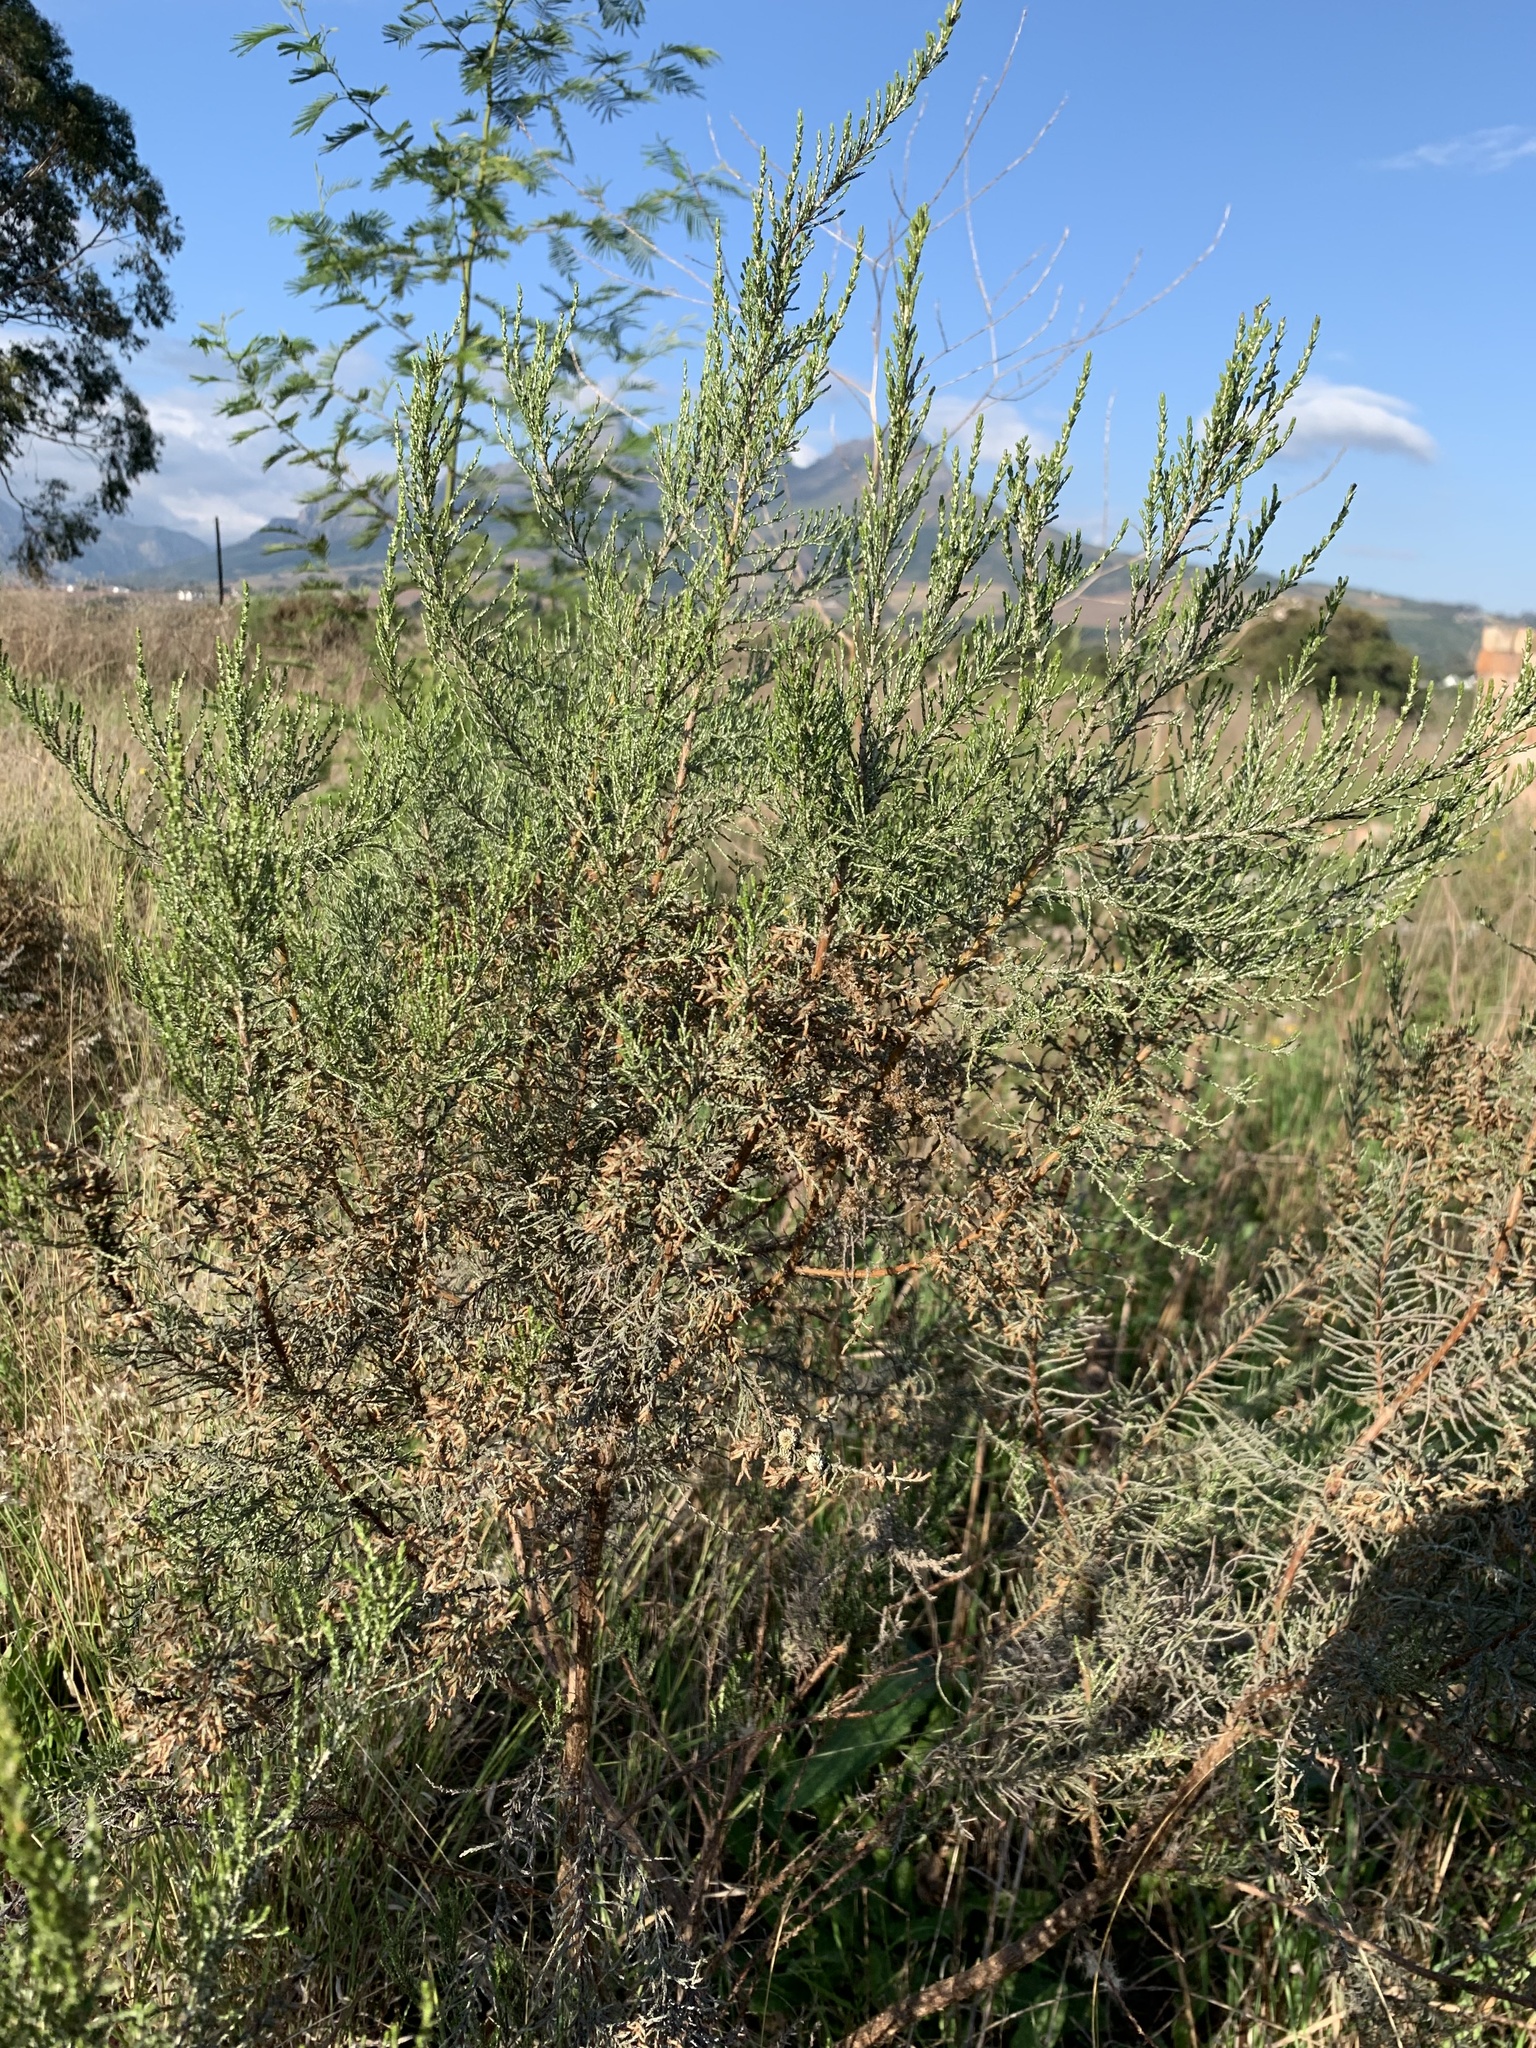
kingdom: Plantae
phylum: Tracheophyta
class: Magnoliopsida
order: Asterales
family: Asteraceae
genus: Dicerothamnus
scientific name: Dicerothamnus rhinocerotis
